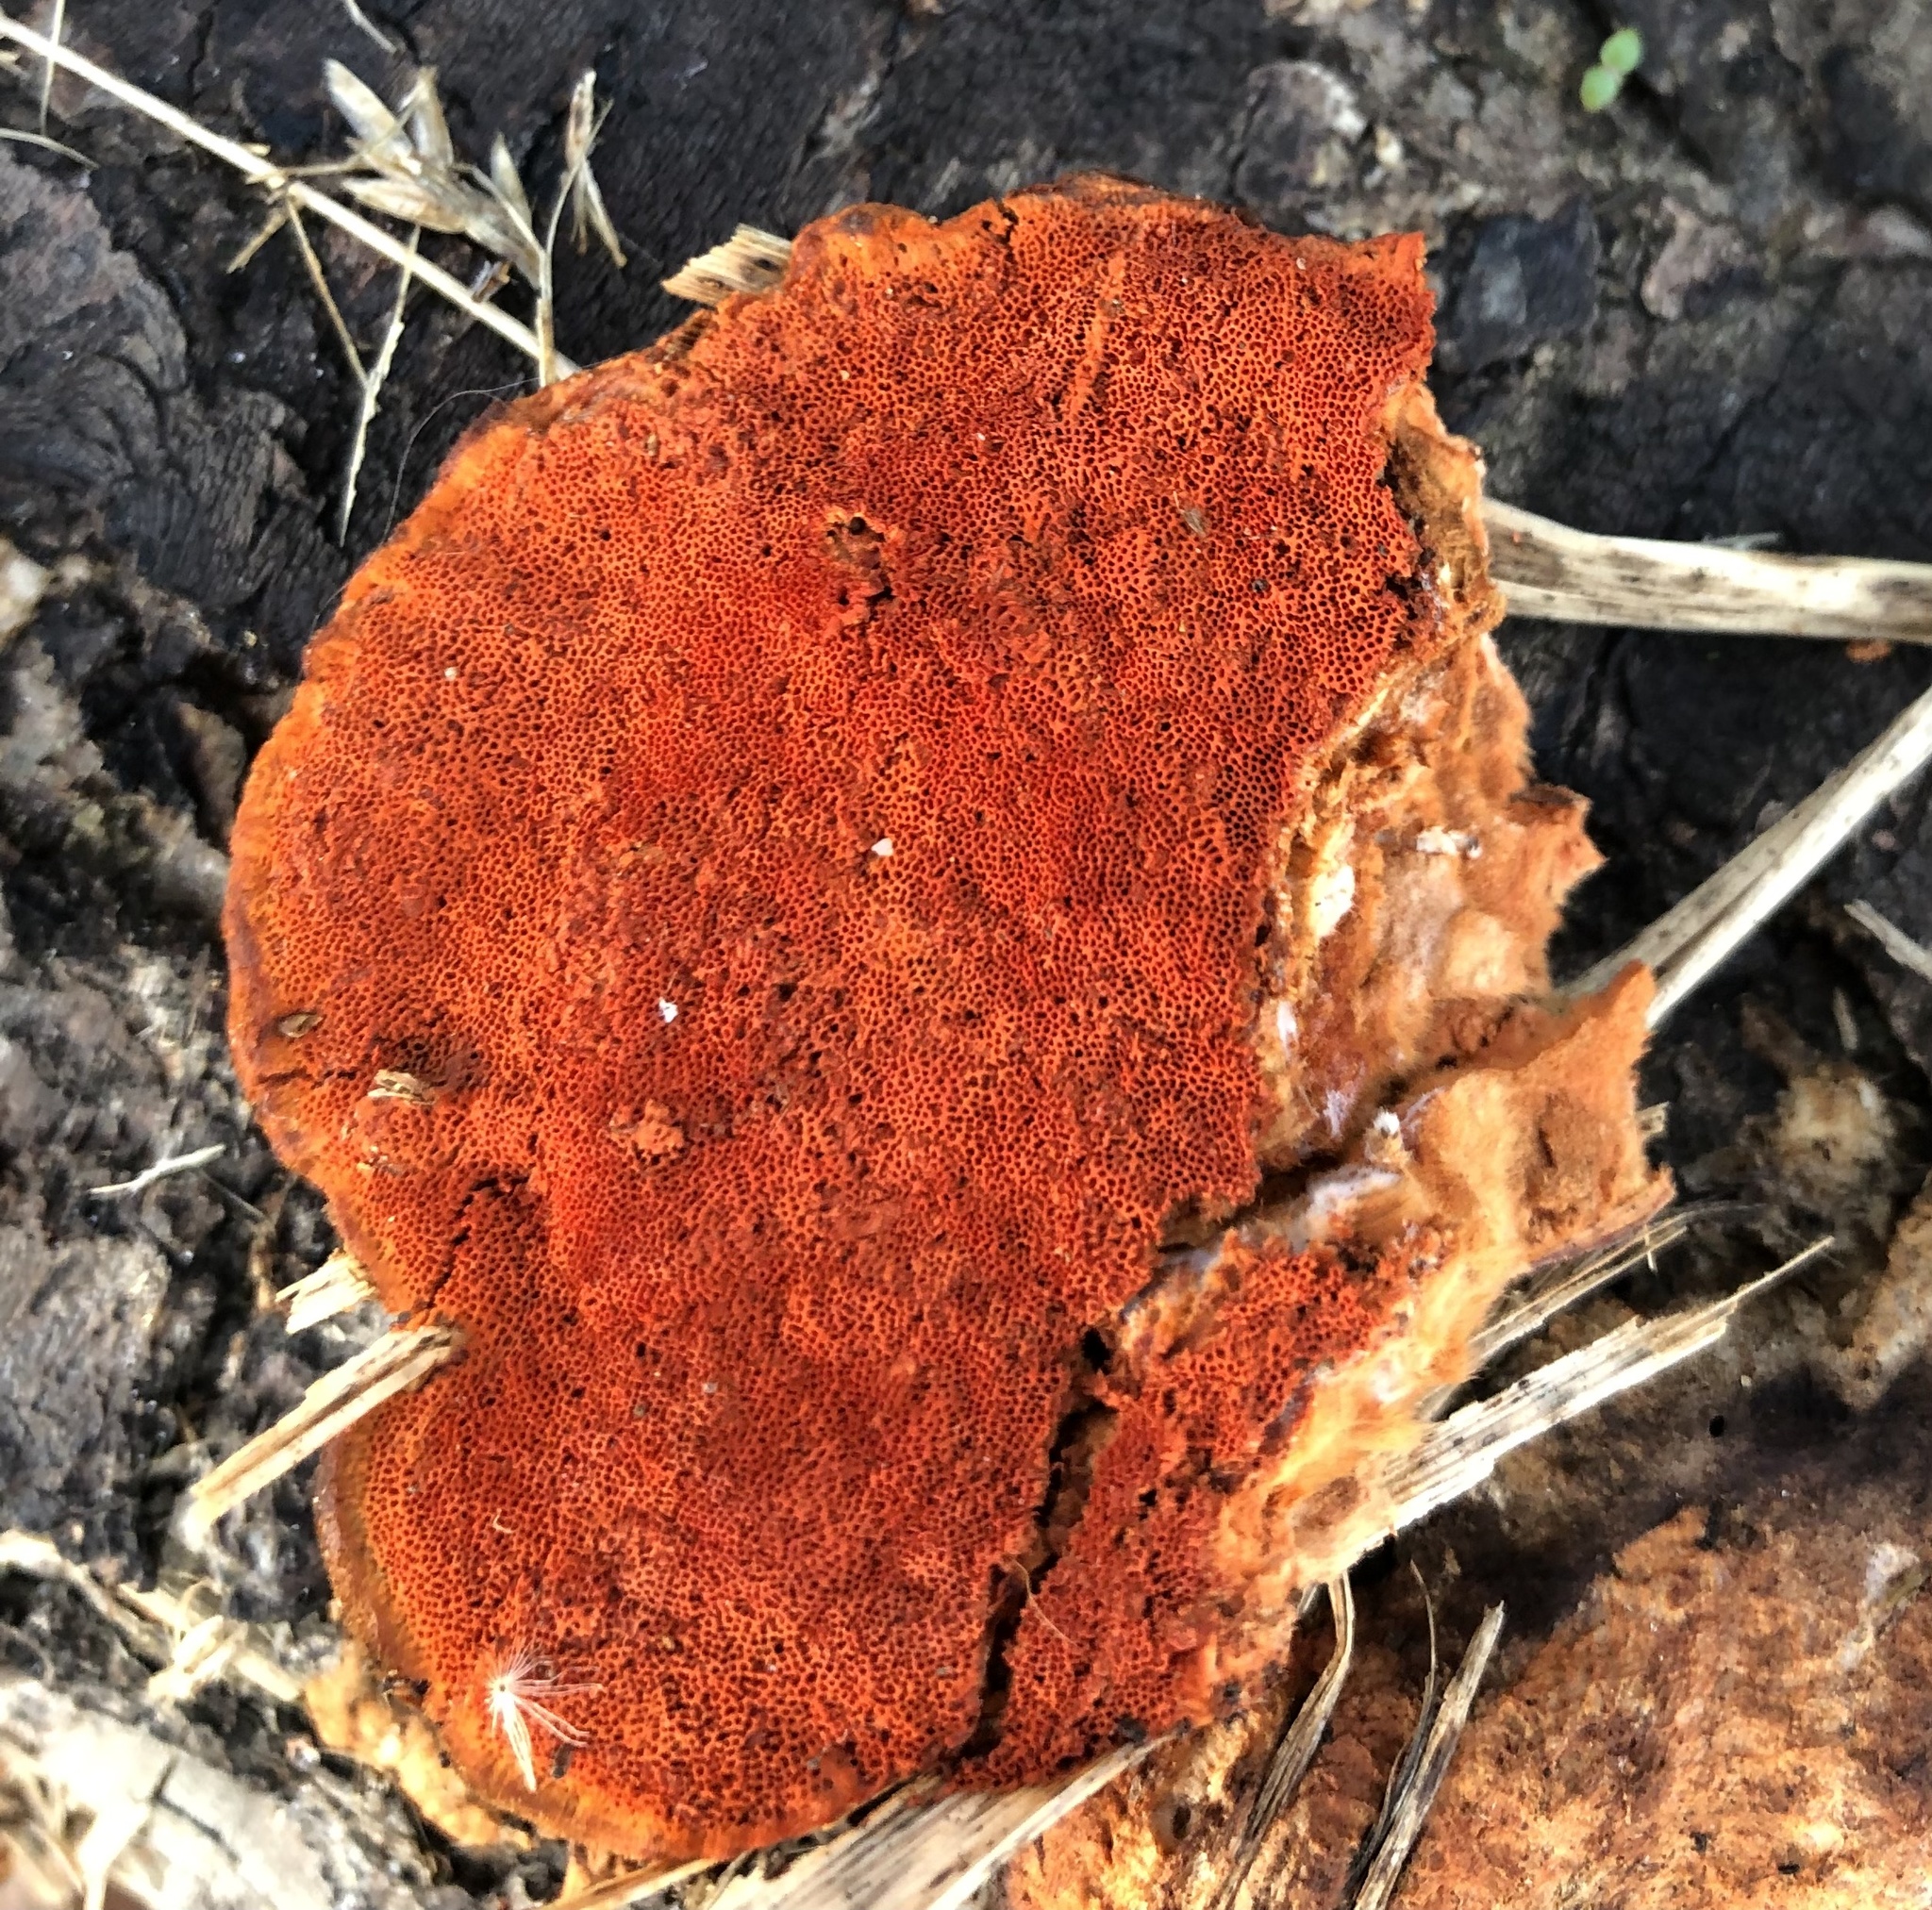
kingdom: Fungi
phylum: Basidiomycota
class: Agaricomycetes
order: Polyporales
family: Polyporaceae
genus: Trametes
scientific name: Trametes cinnabarina
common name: Northern cinnabar polypore
